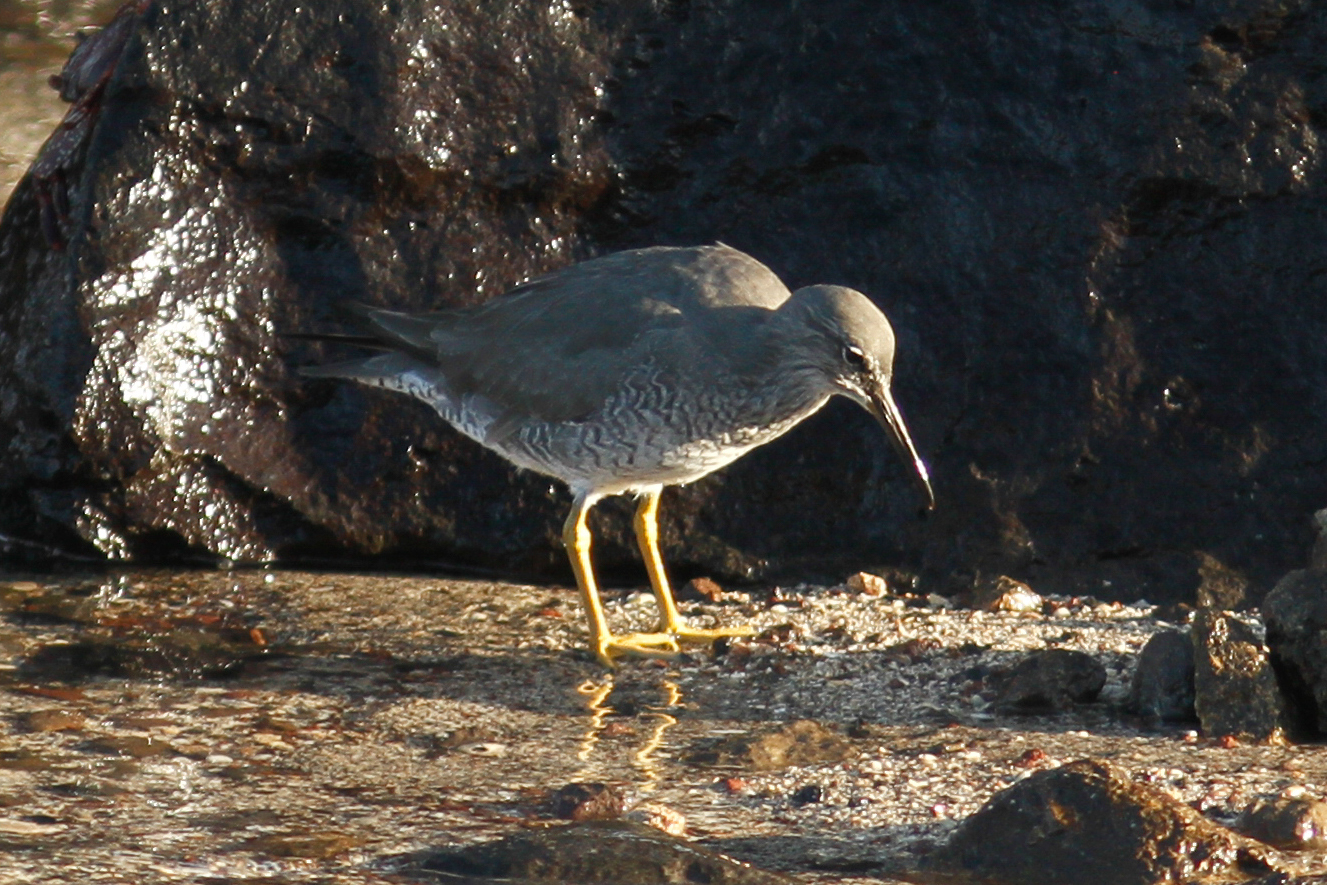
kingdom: Animalia
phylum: Chordata
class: Aves
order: Charadriiformes
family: Scolopacidae
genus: Tringa
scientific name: Tringa incana
